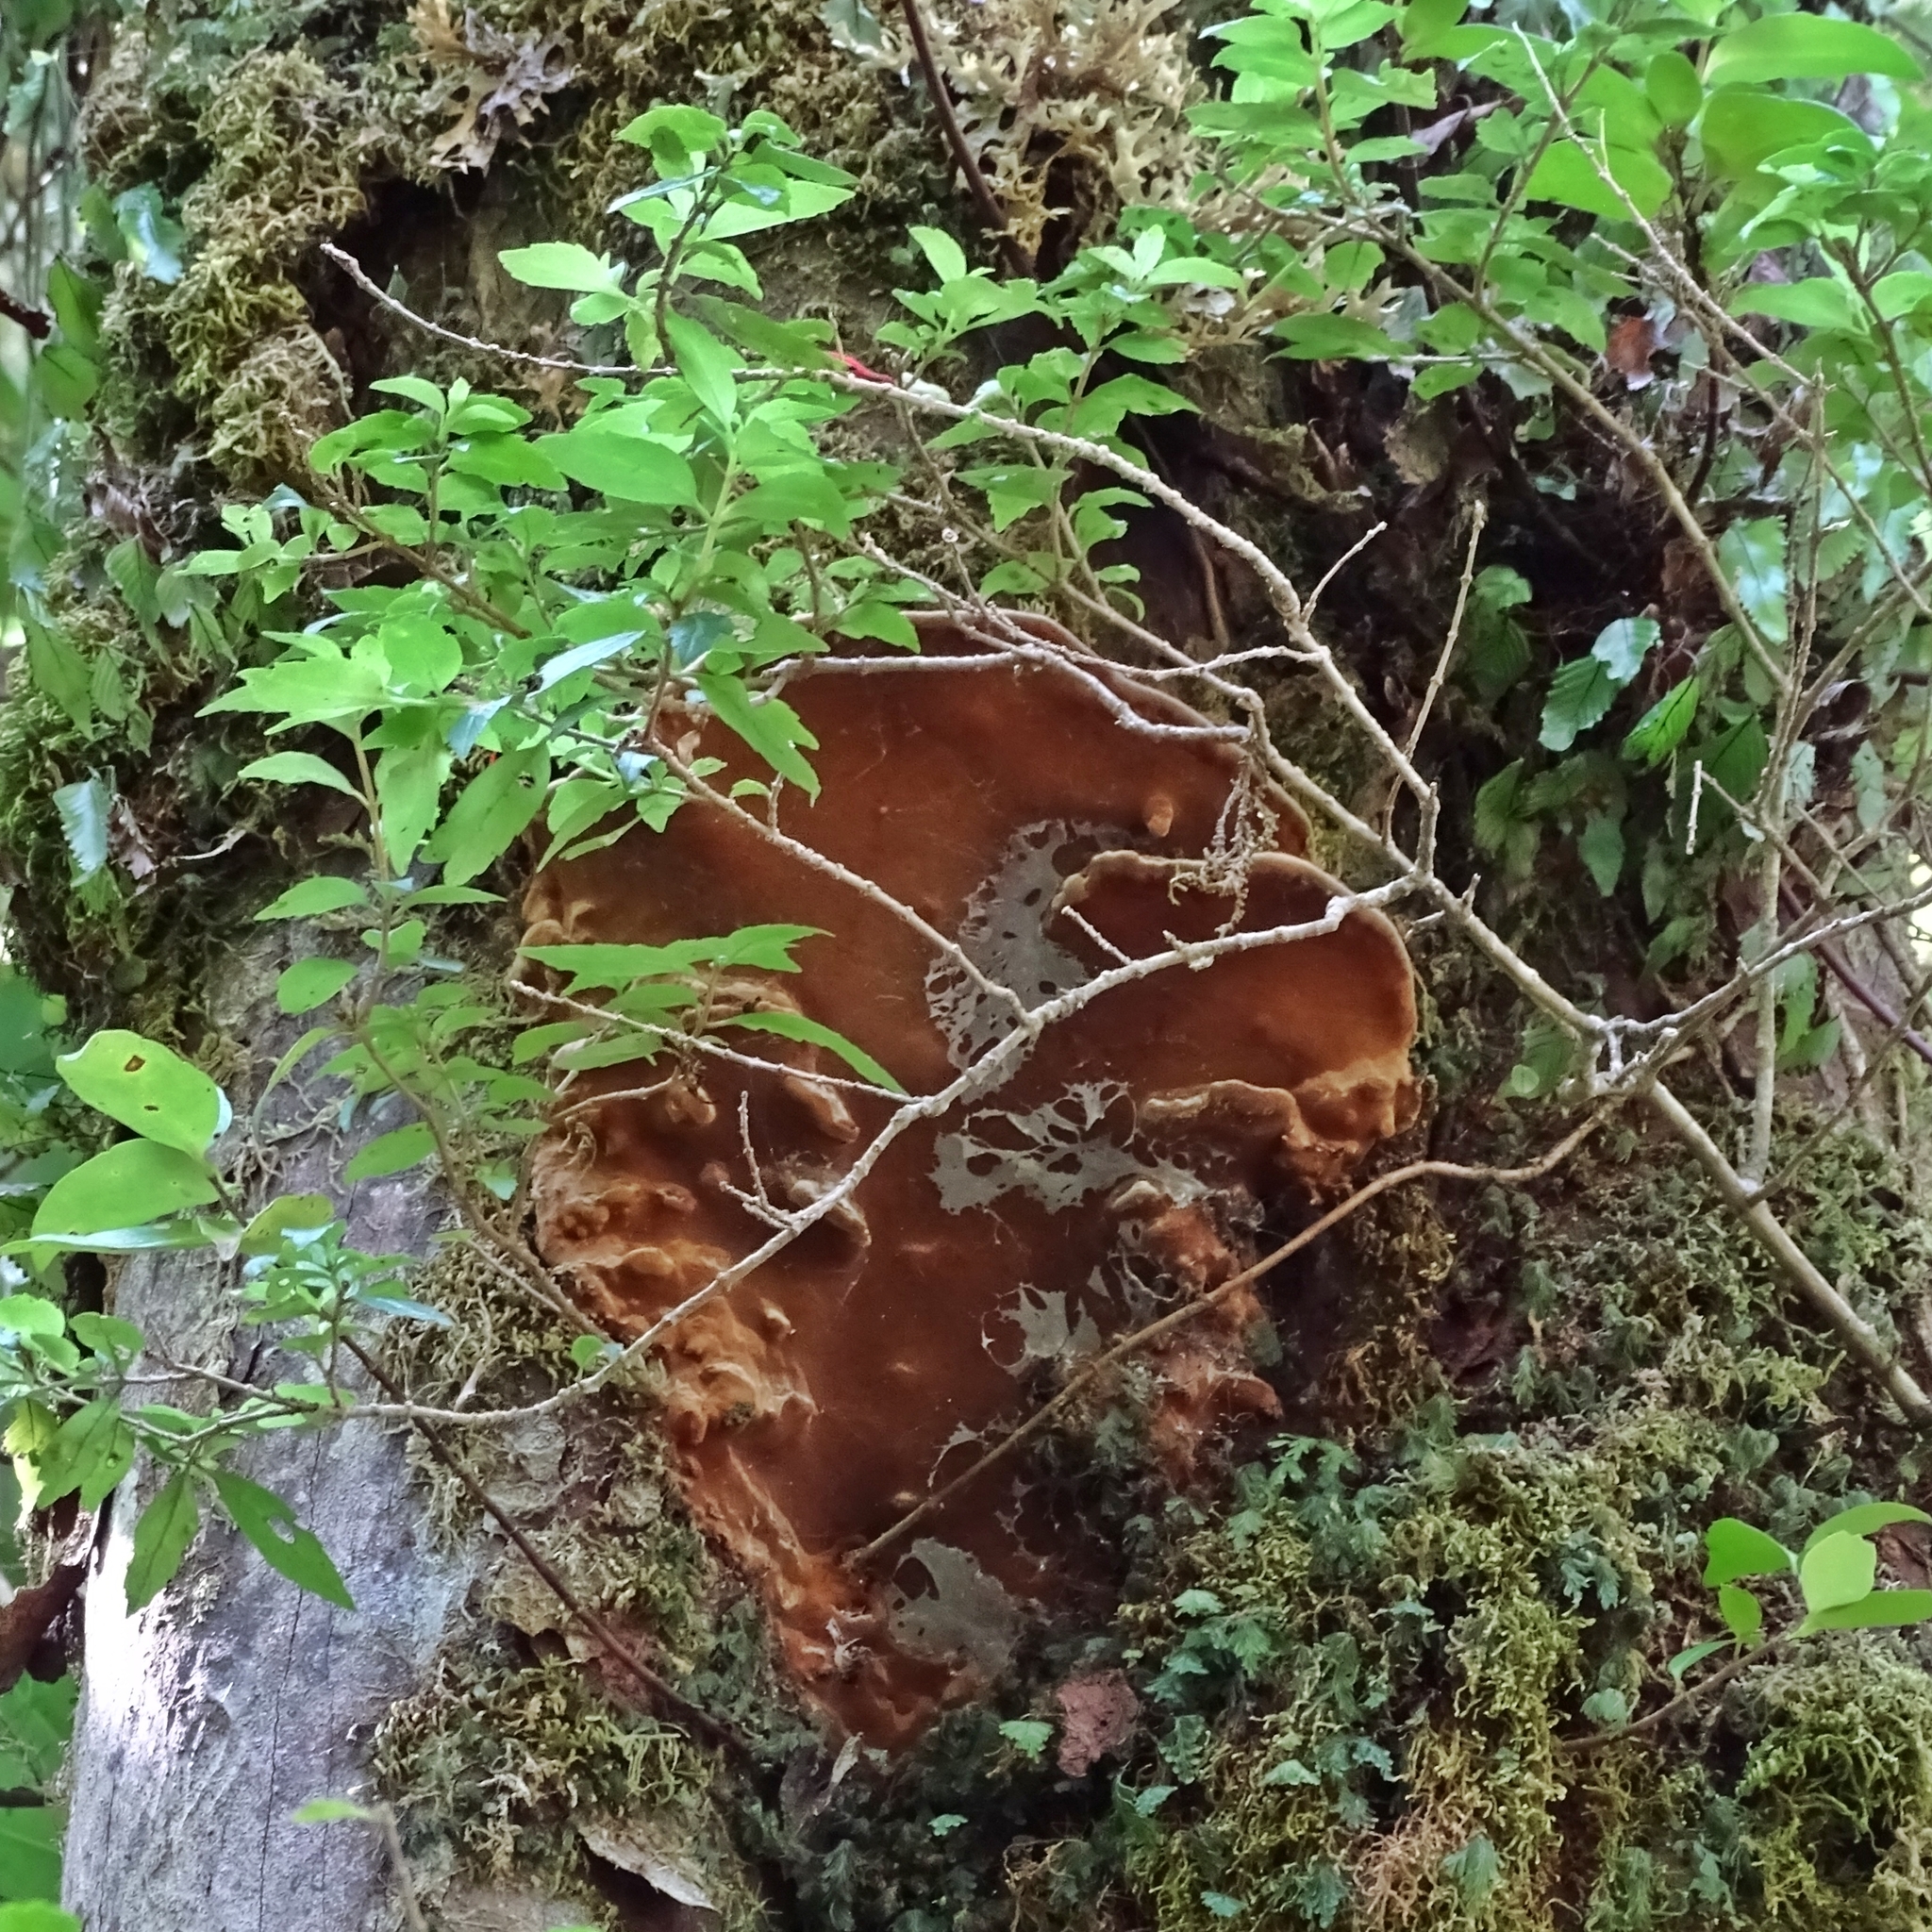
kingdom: Fungi
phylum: Basidiomycota
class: Agaricomycetes
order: Hymenochaetales
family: Hymenochaetaceae
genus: Fuscoporia
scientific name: Fuscoporia senex
